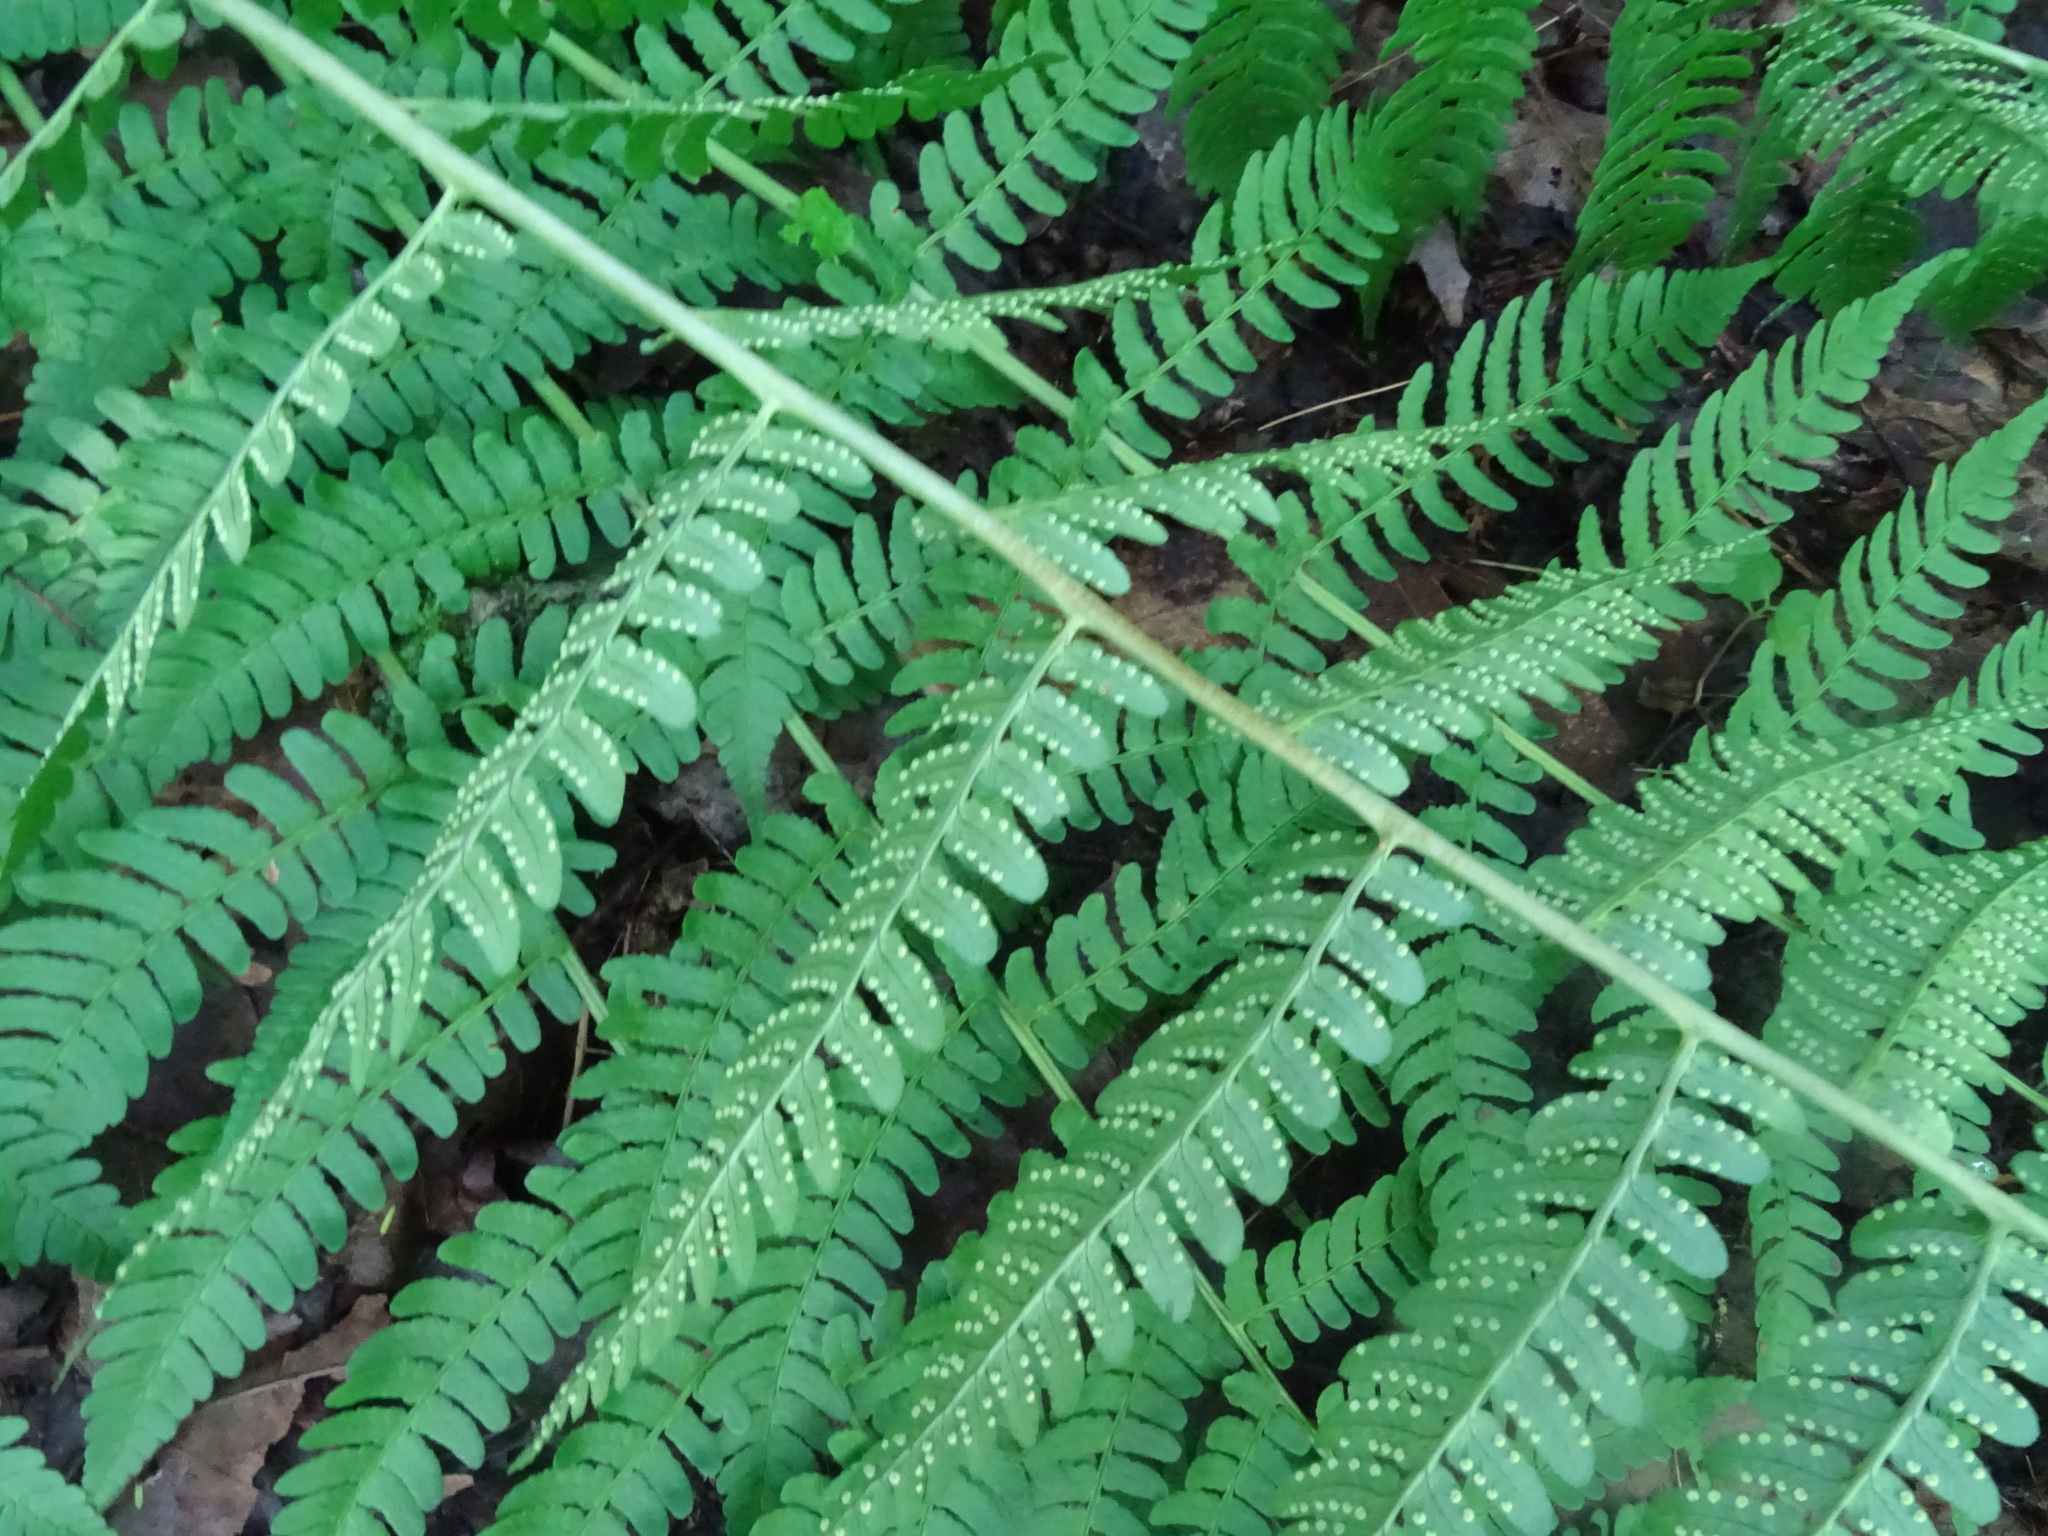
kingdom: Plantae
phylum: Tracheophyta
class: Polypodiopsida
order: Polypodiales
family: Dryopteridaceae
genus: Dryopteris
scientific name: Dryopteris marginalis
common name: Marginal wood fern
